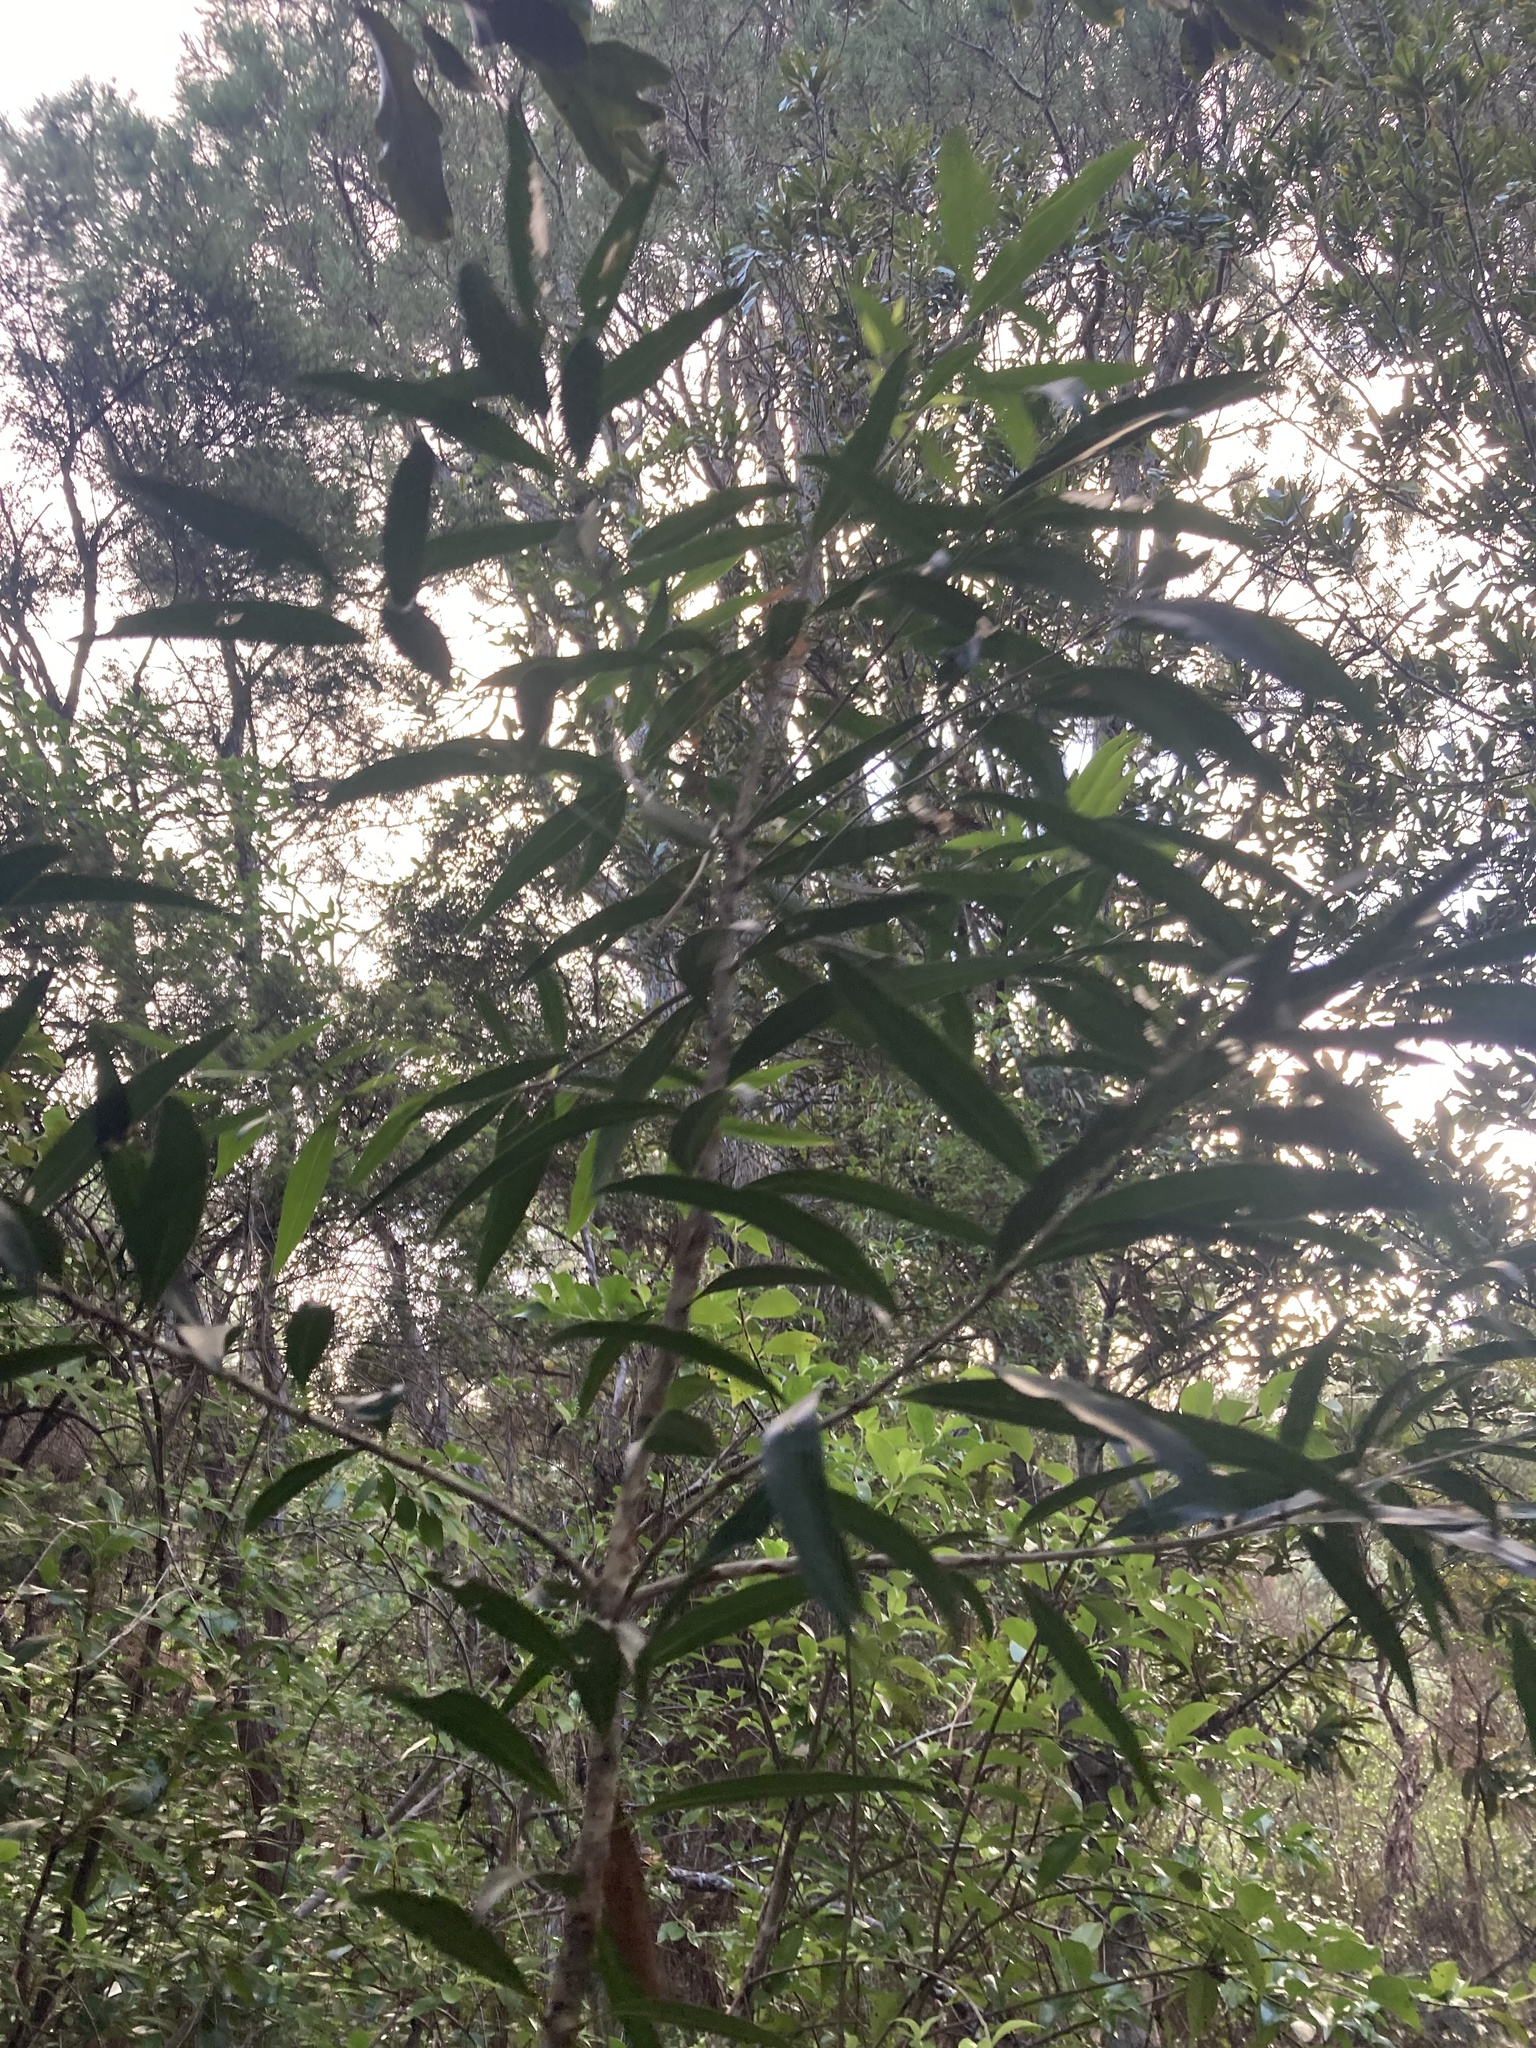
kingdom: Plantae
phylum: Tracheophyta
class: Magnoliopsida
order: Lamiales
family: Oleaceae
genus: Nestegis
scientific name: Nestegis lanceolata
